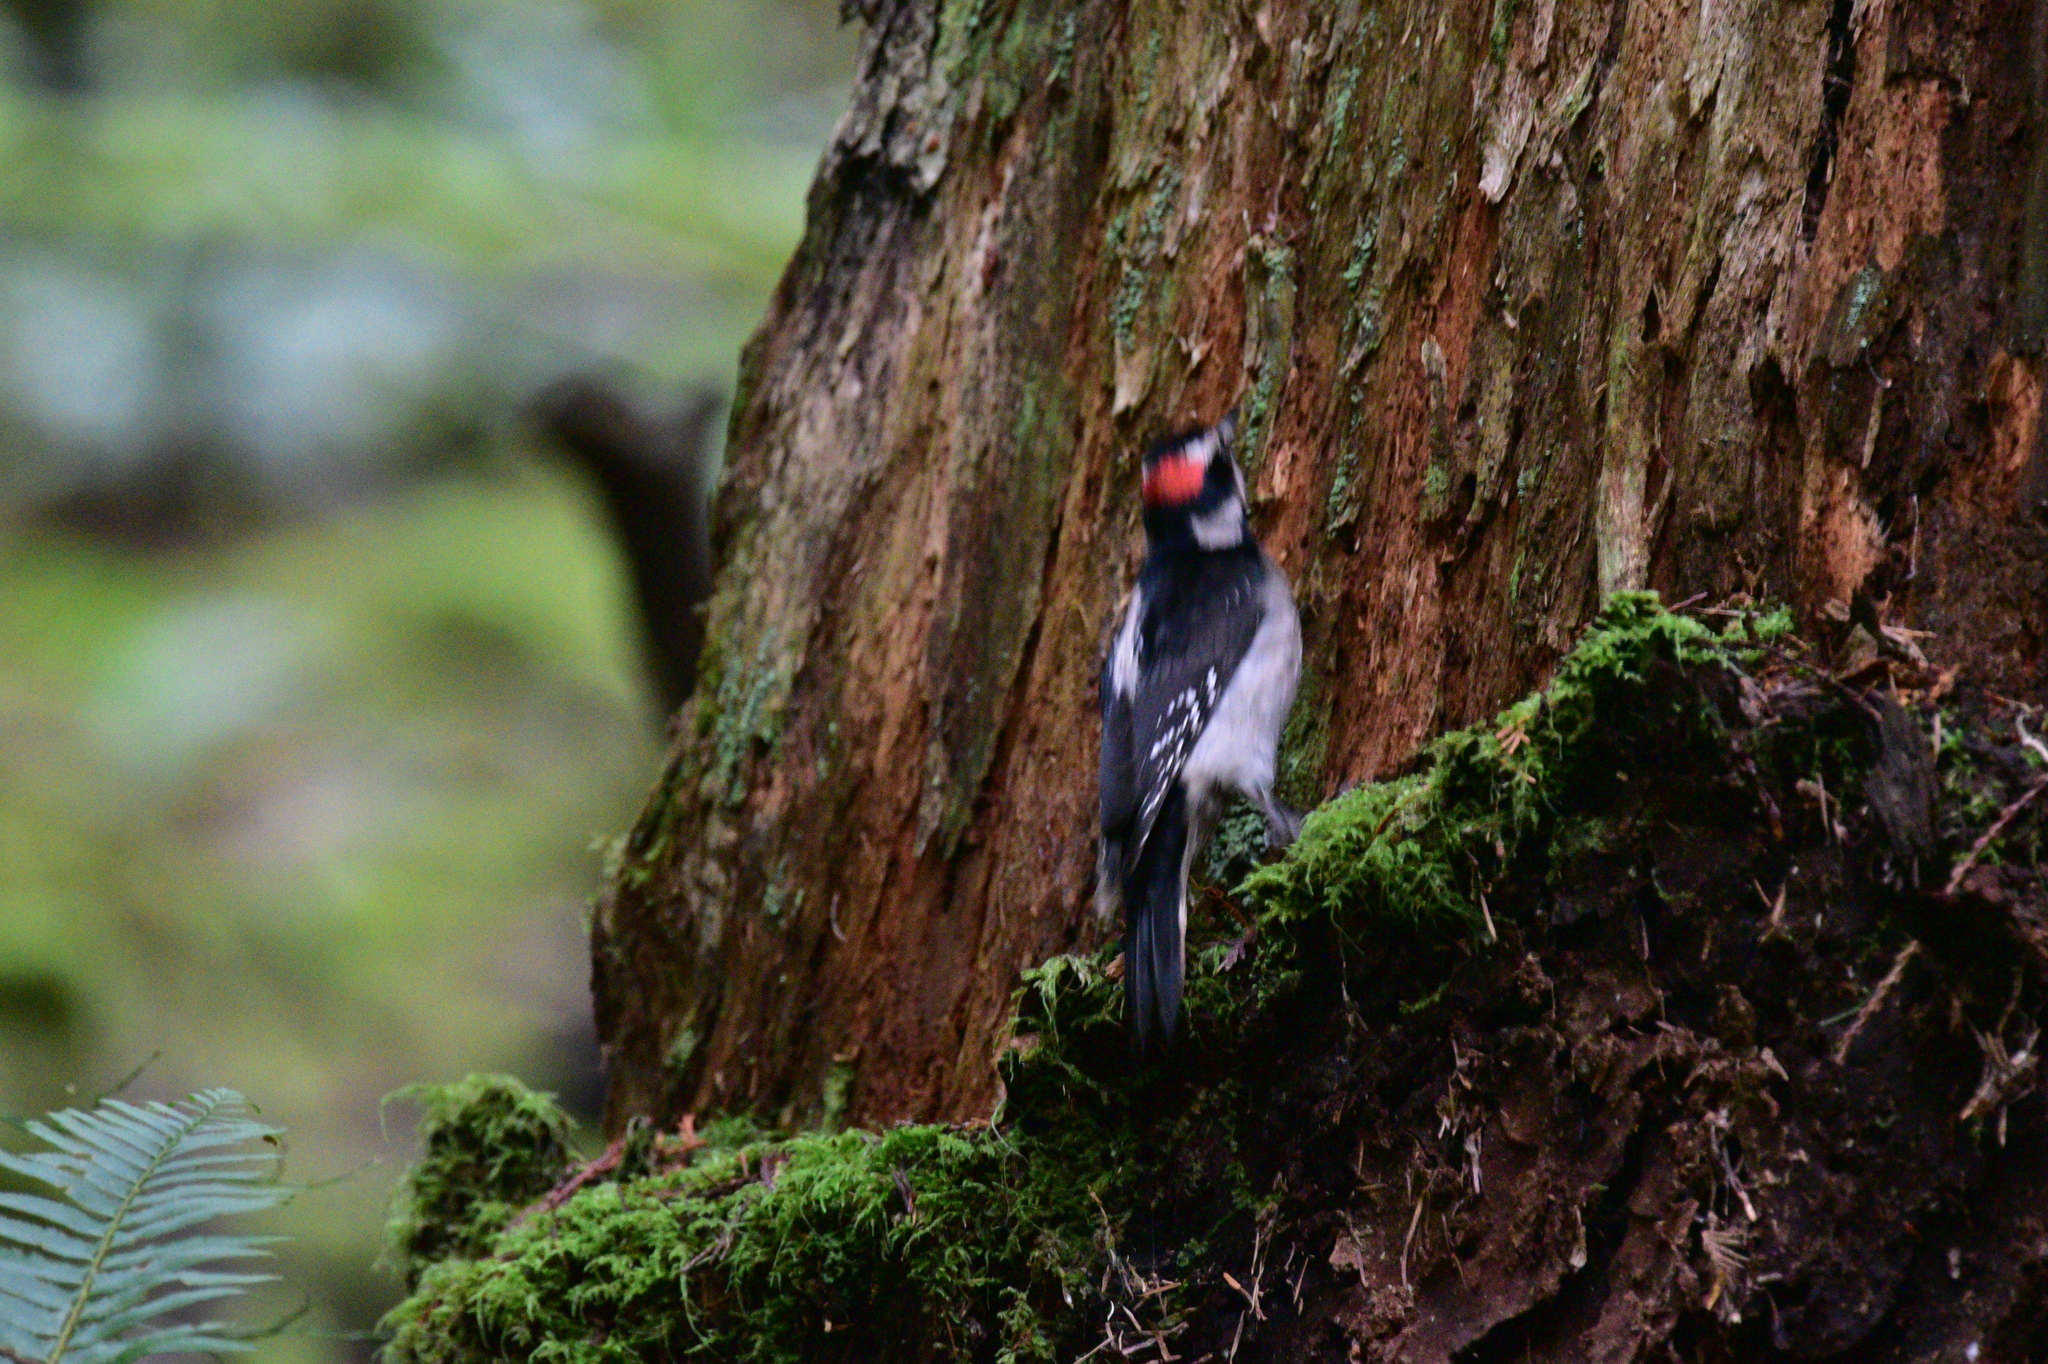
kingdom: Animalia
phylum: Chordata
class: Aves
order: Piciformes
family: Picidae
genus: Leuconotopicus
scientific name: Leuconotopicus villosus
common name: Hairy woodpecker
